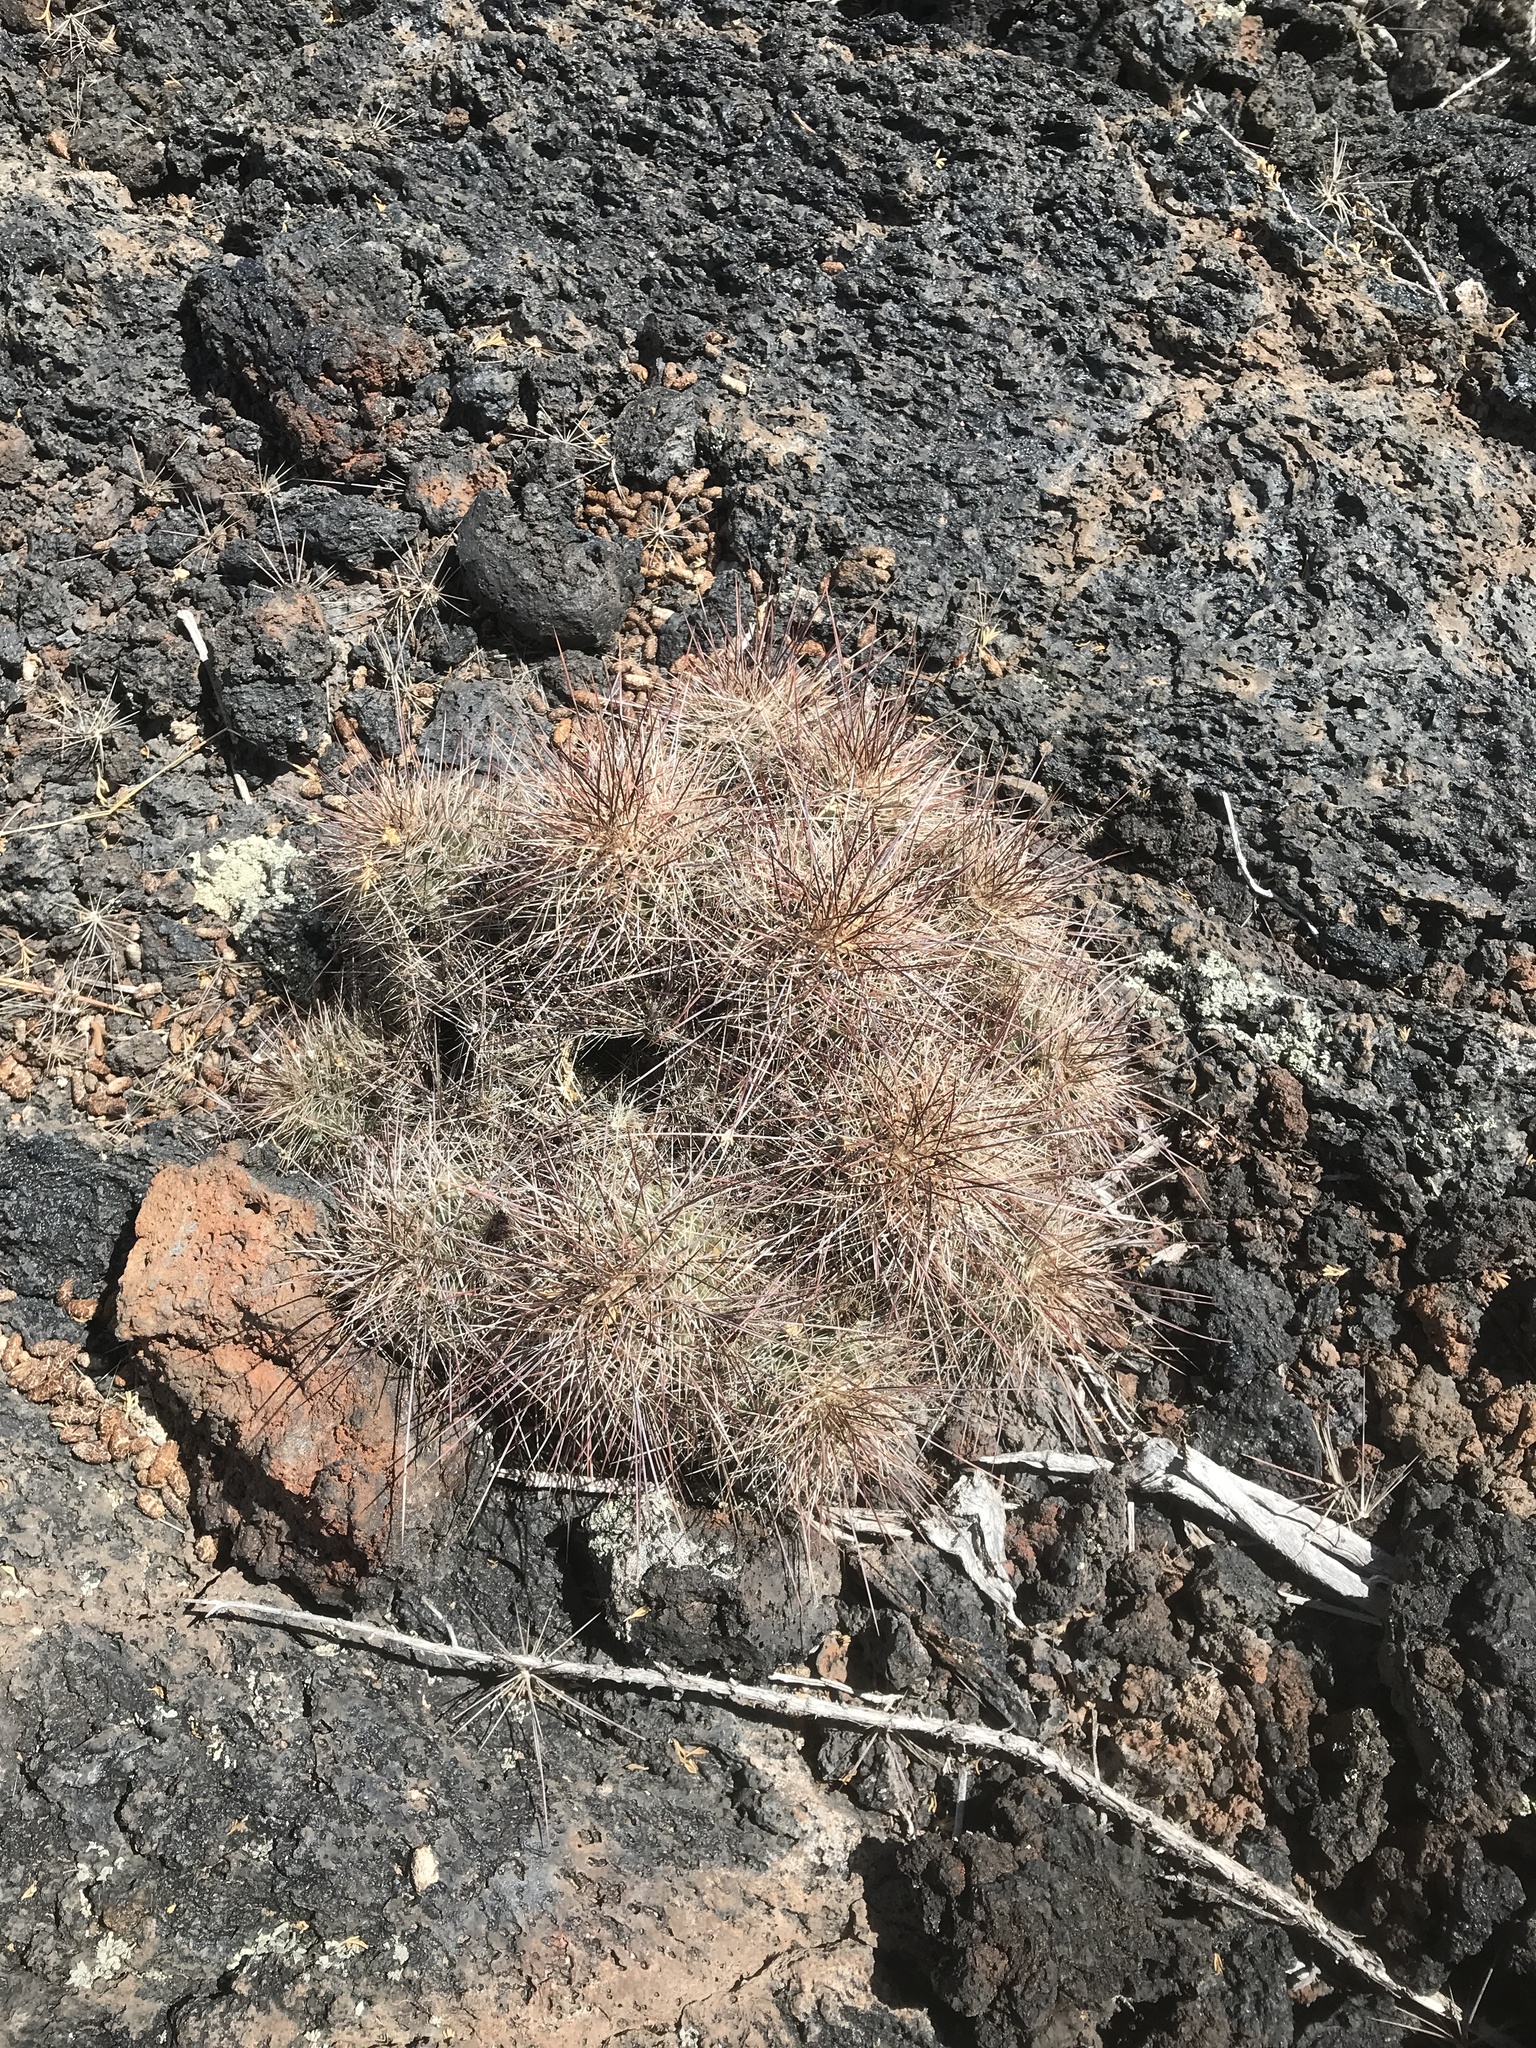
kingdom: Plantae
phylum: Tracheophyta
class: Magnoliopsida
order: Caryophyllales
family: Cactaceae
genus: Echinocereus
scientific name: Echinocereus coccineus
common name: Scarlet hedgehog cactus
